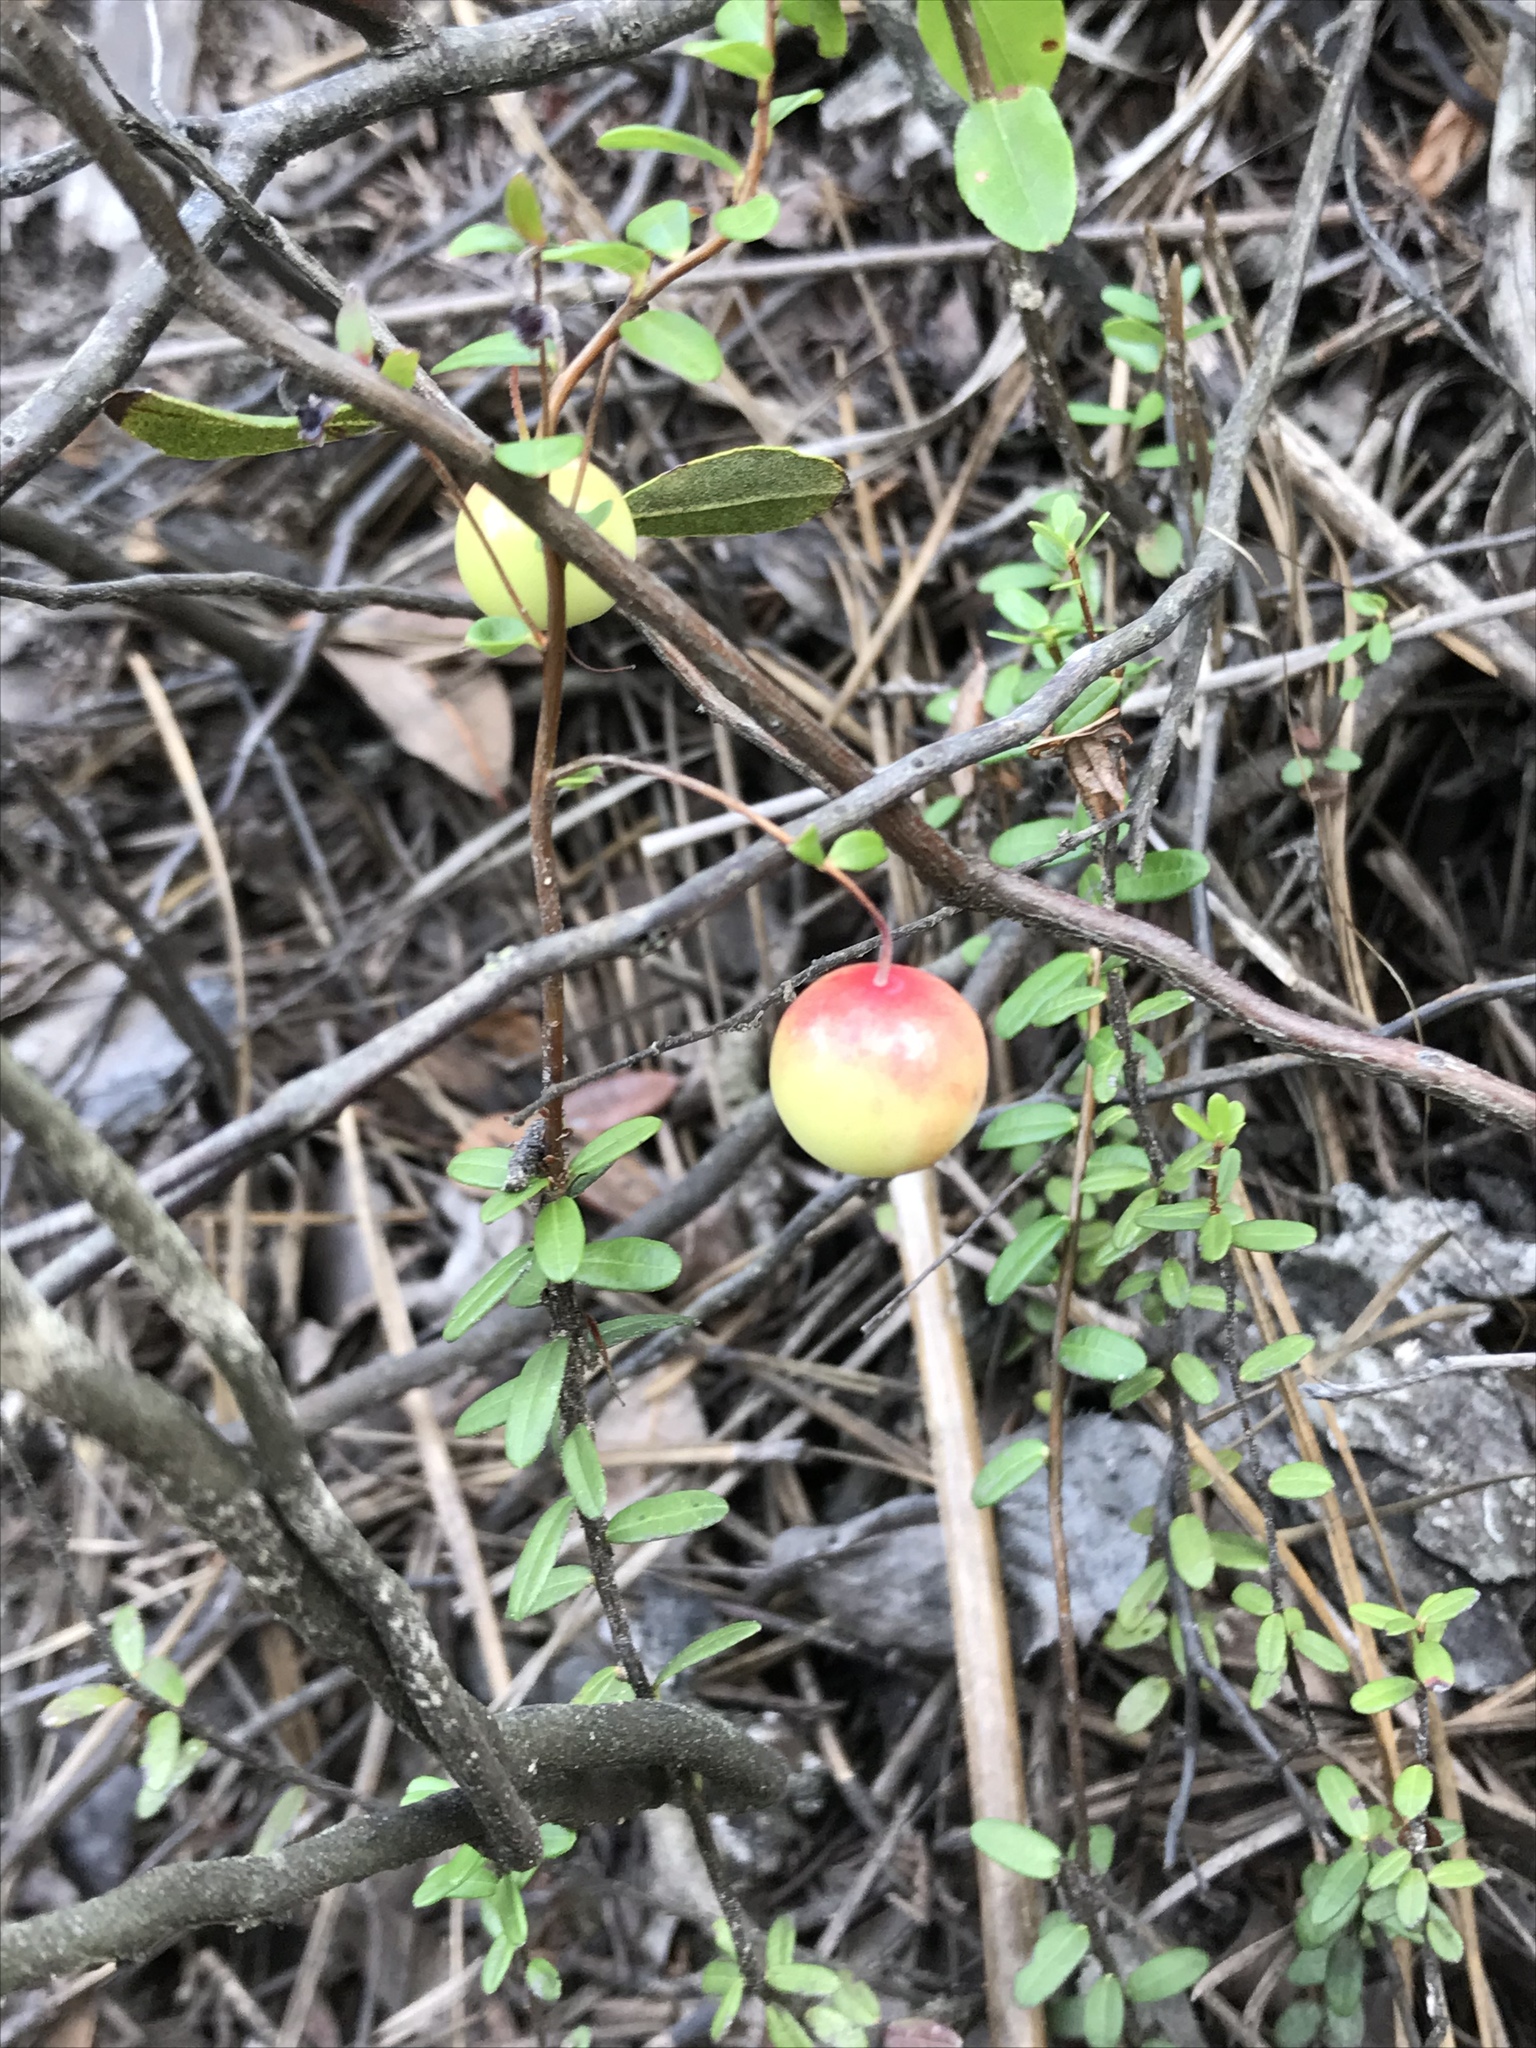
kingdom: Plantae
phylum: Tracheophyta
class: Magnoliopsida
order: Ericales
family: Ericaceae
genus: Vaccinium
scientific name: Vaccinium macrocarpon
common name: American cranberry
